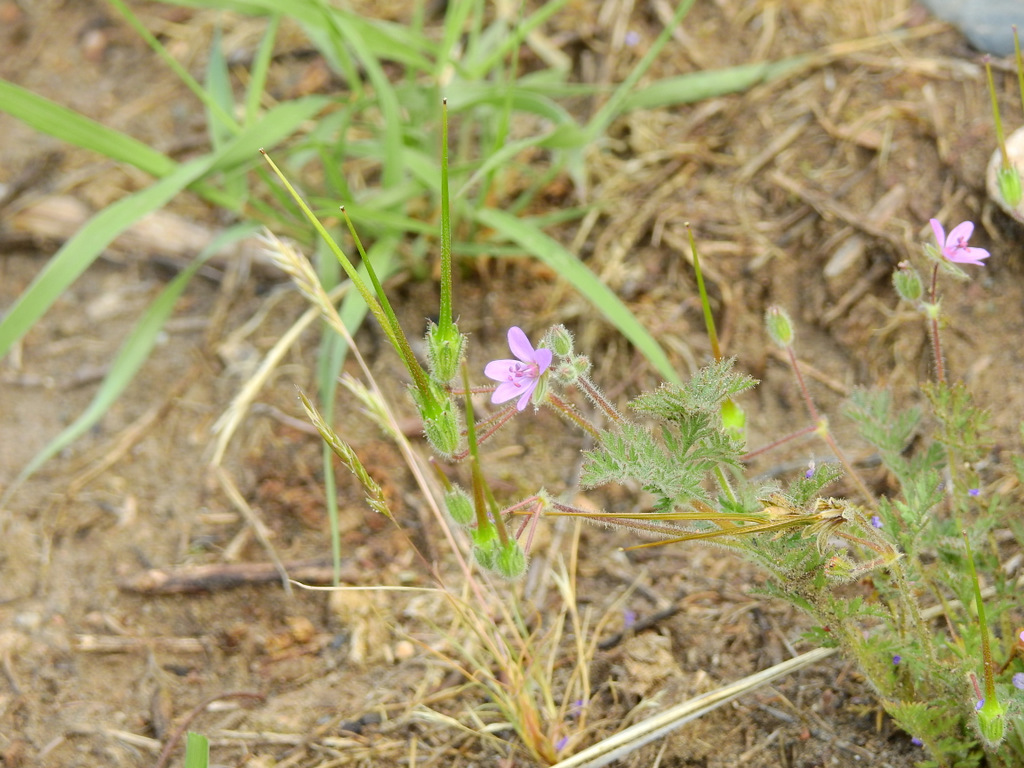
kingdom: Plantae
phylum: Tracheophyta
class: Magnoliopsida
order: Geraniales
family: Geraniaceae
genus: Erodium
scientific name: Erodium cicutarium
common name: Common stork's-bill
